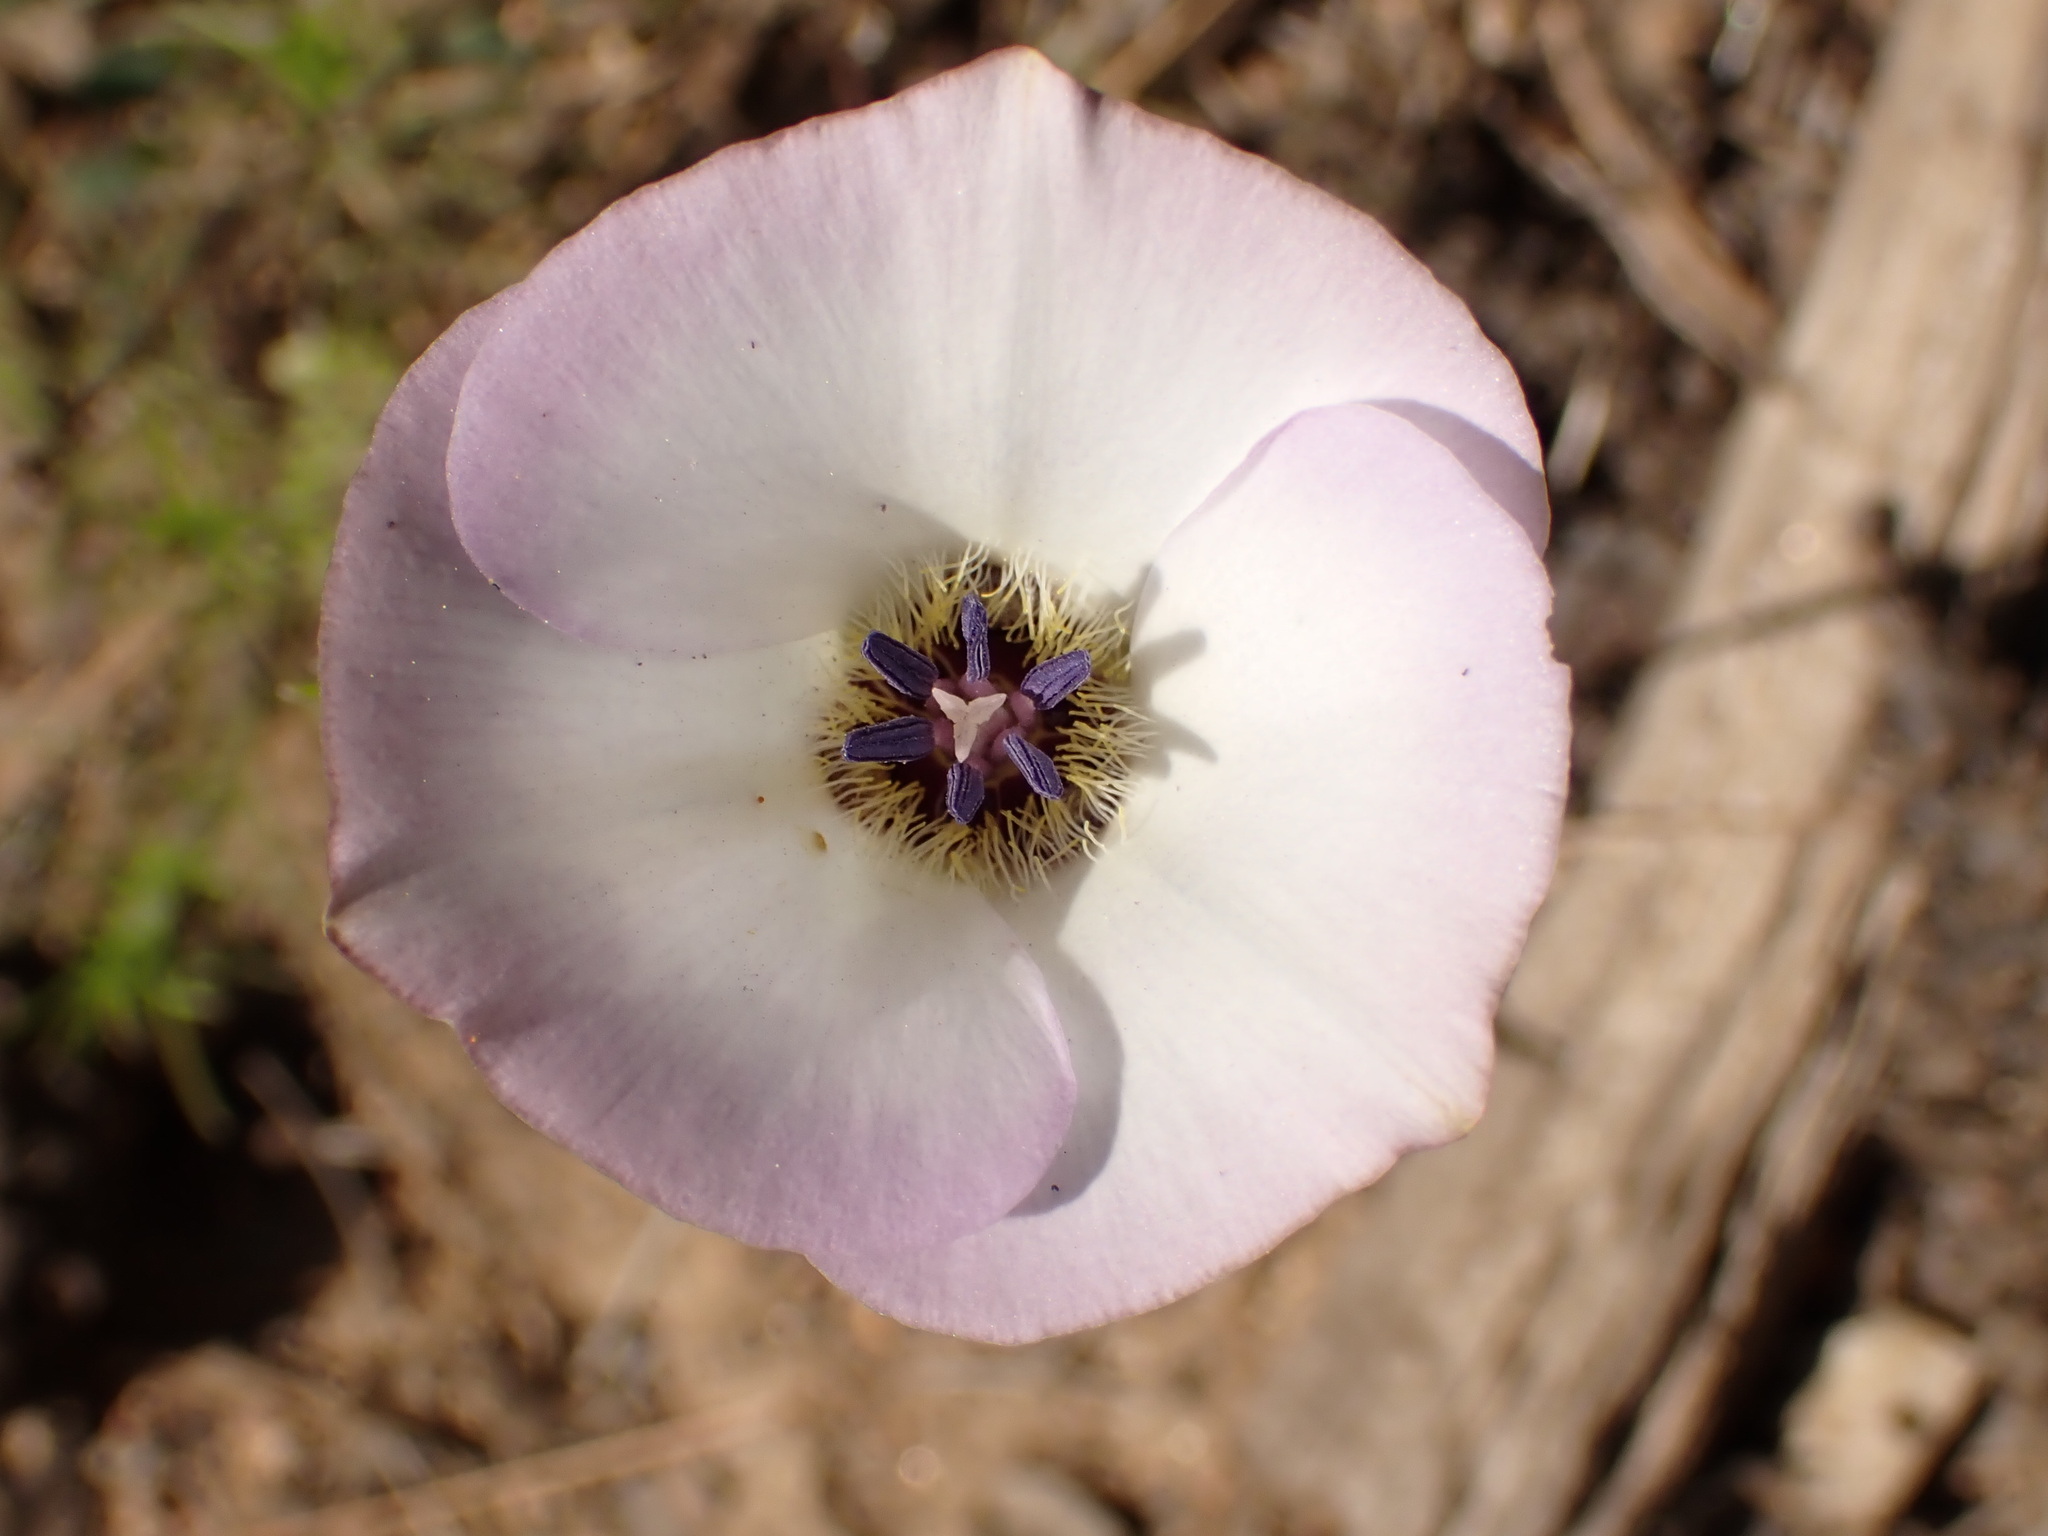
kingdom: Plantae
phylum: Tracheophyta
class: Liliopsida
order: Liliales
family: Liliaceae
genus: Calochortus
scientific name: Calochortus invenustus
